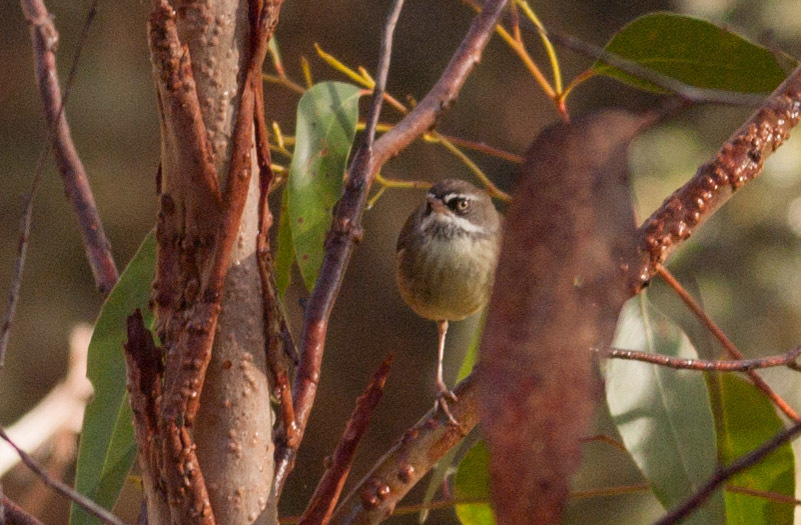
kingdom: Animalia
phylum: Chordata
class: Aves
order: Passeriformes
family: Acanthizidae
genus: Sericornis
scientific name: Sericornis frontalis
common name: White-browed scrubwren
